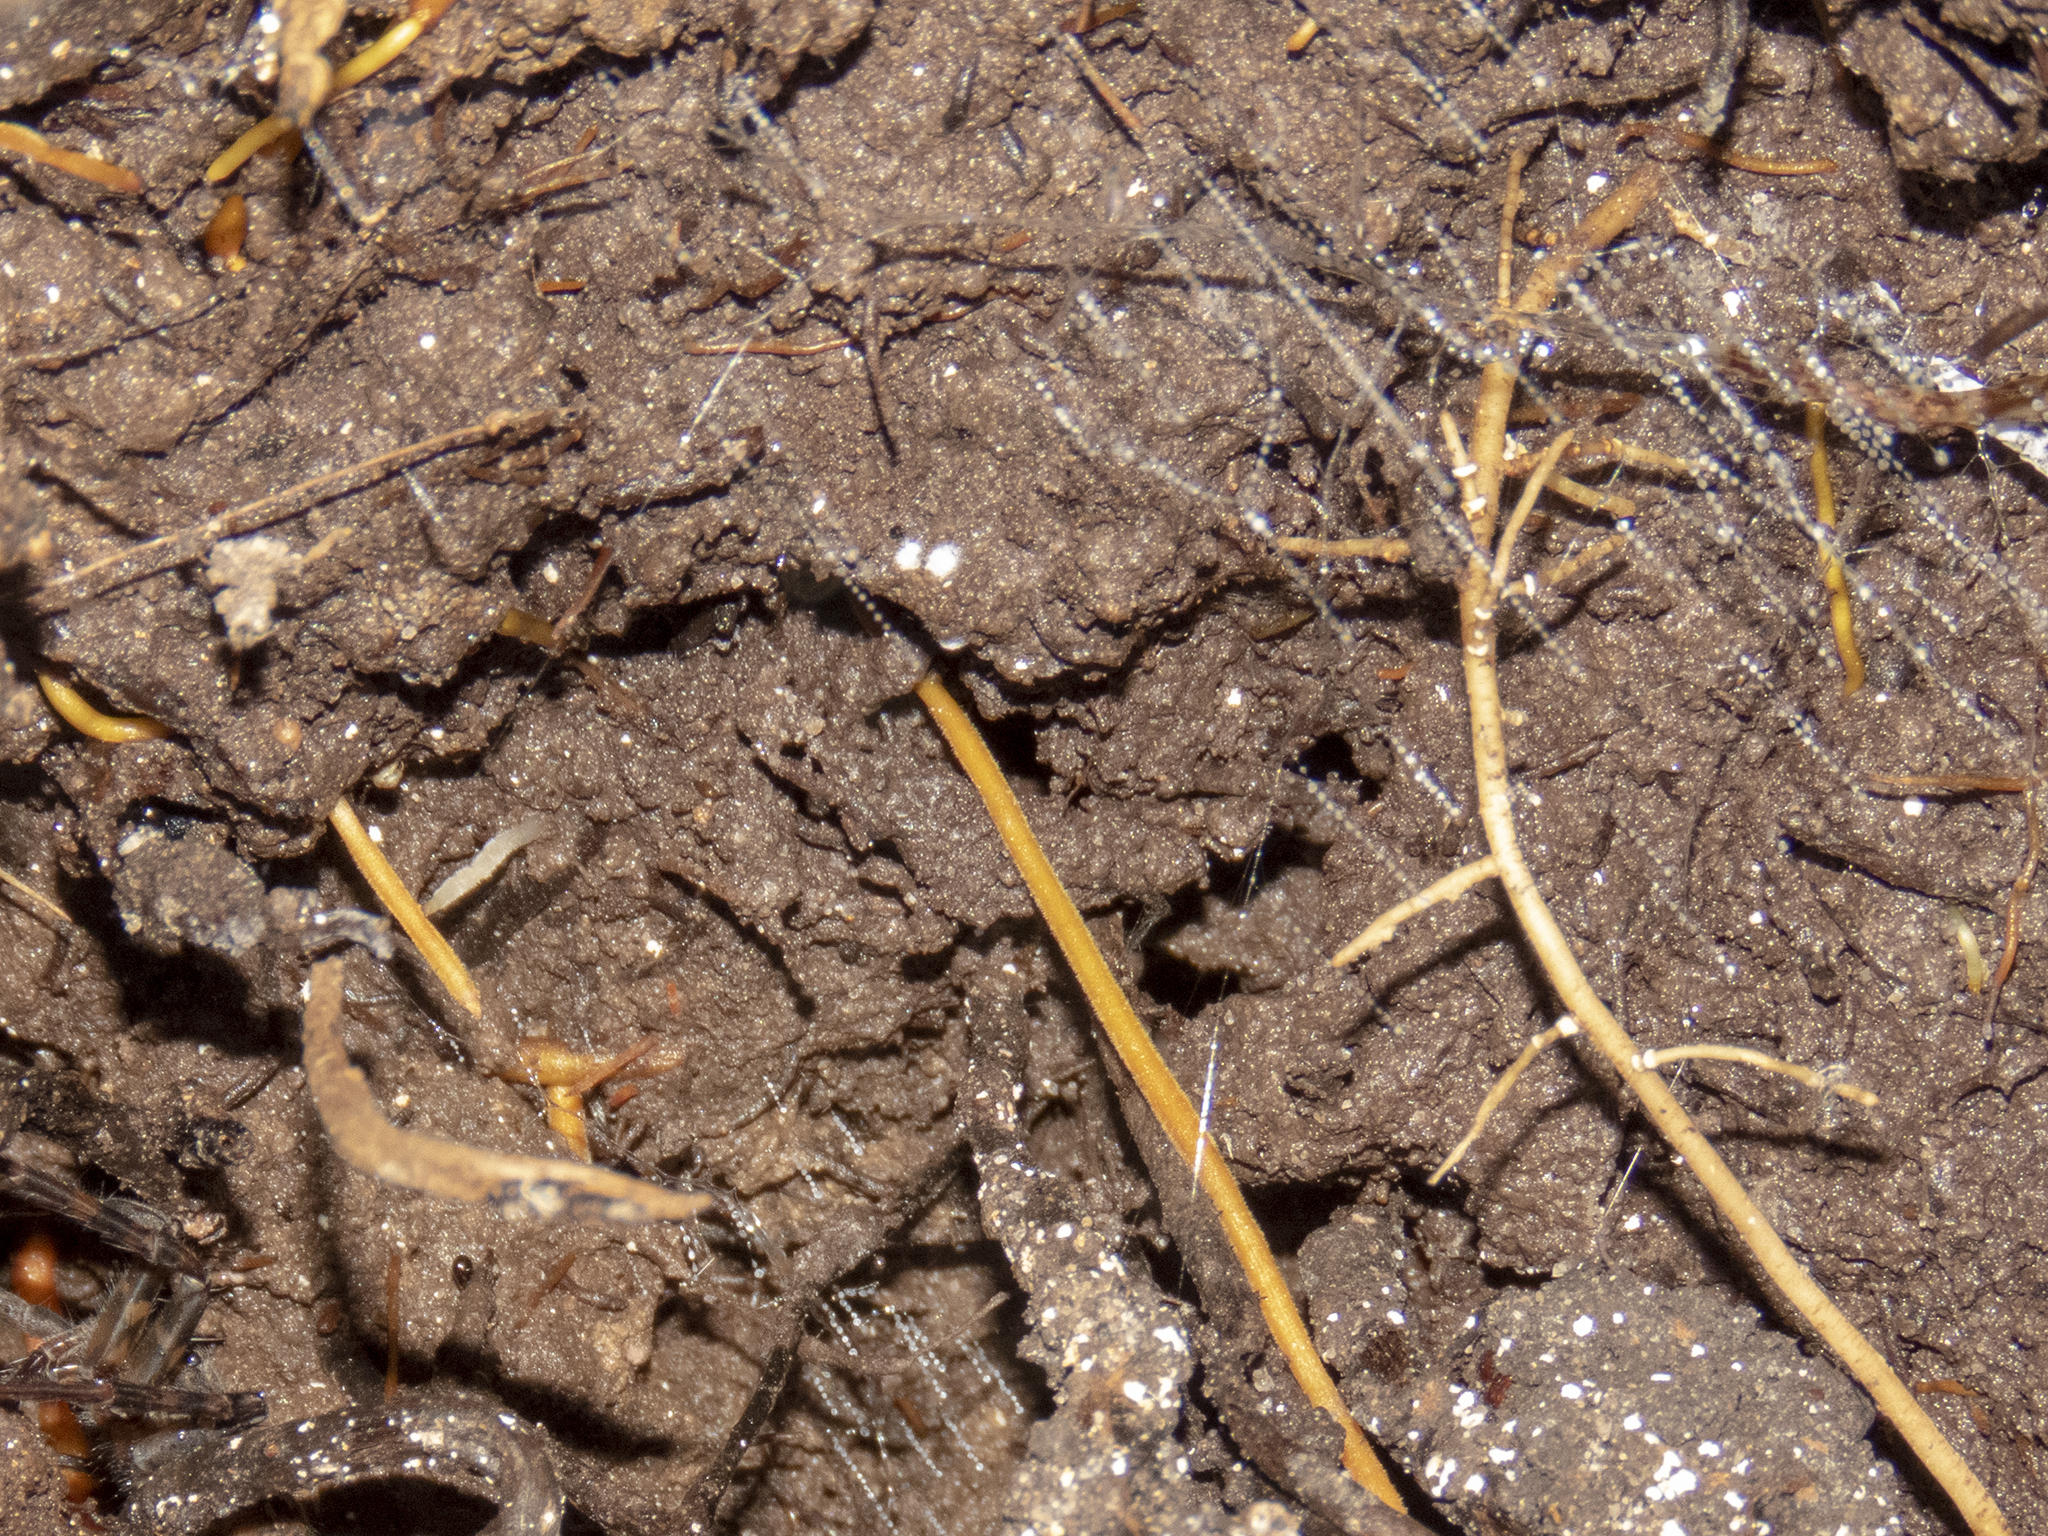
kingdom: Animalia
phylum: Arthropoda
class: Insecta
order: Diptera
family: Keroplatidae
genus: Arachnocampa
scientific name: Arachnocampa luminosa
